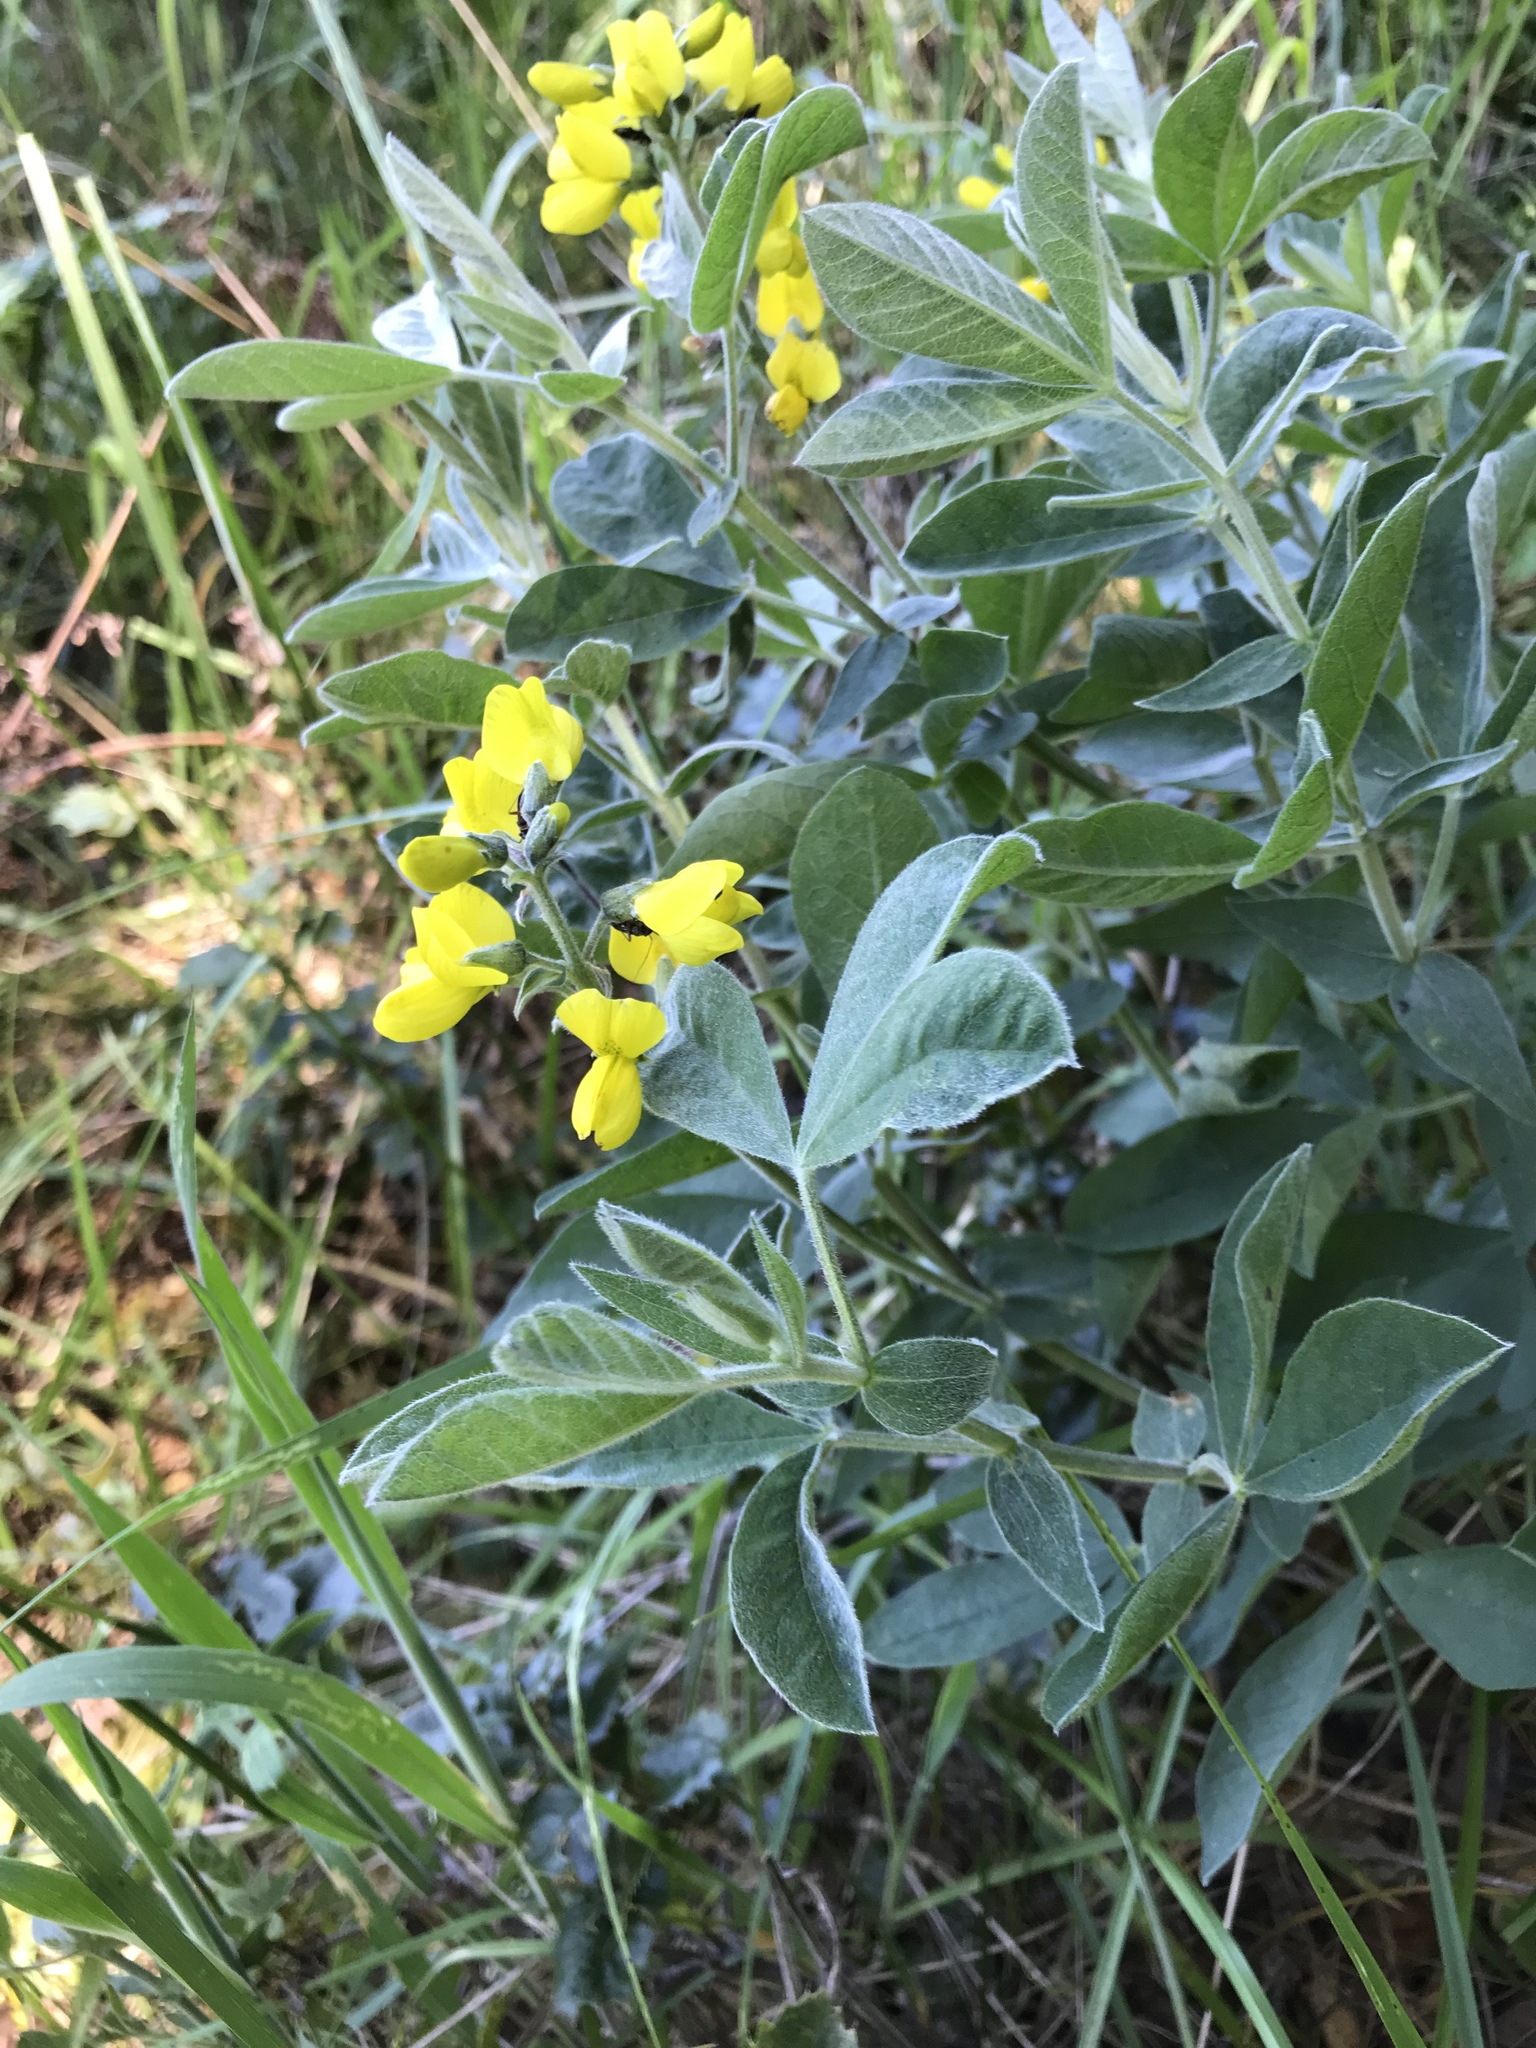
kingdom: Plantae
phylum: Tracheophyta
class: Magnoliopsida
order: Fabales
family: Fabaceae
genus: Thermopsis
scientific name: Thermopsis californica
